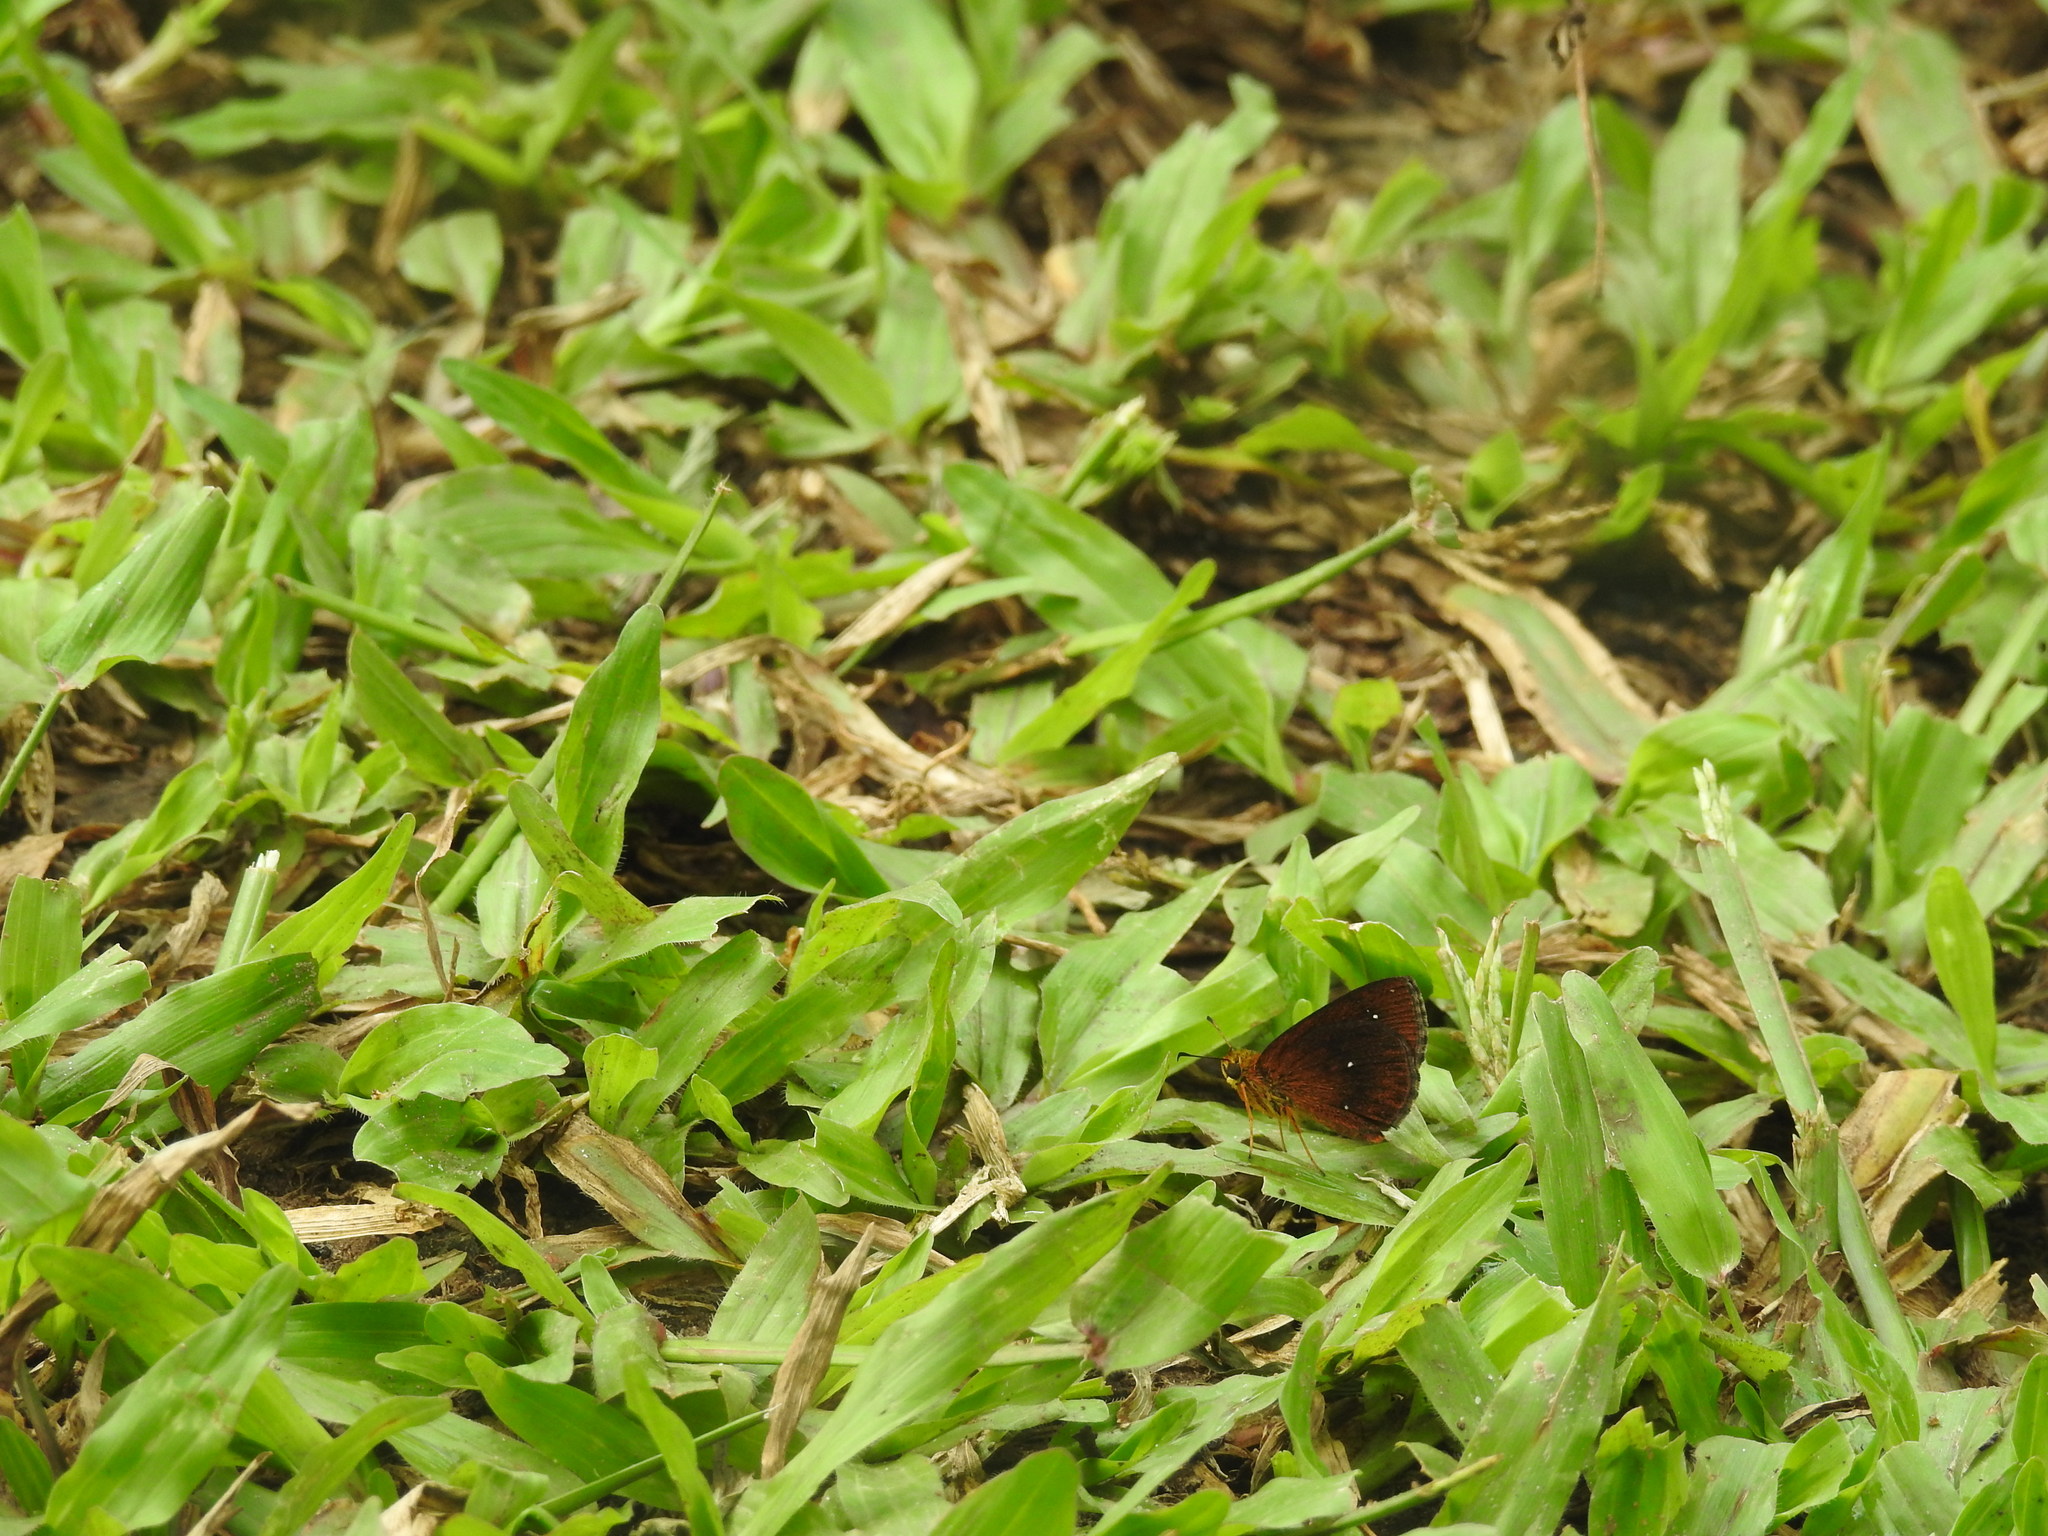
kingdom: Animalia
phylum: Arthropoda
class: Insecta
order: Lepidoptera
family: Hesperiidae
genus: Iambrix
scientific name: Iambrix salsala
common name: Chestnut bob
